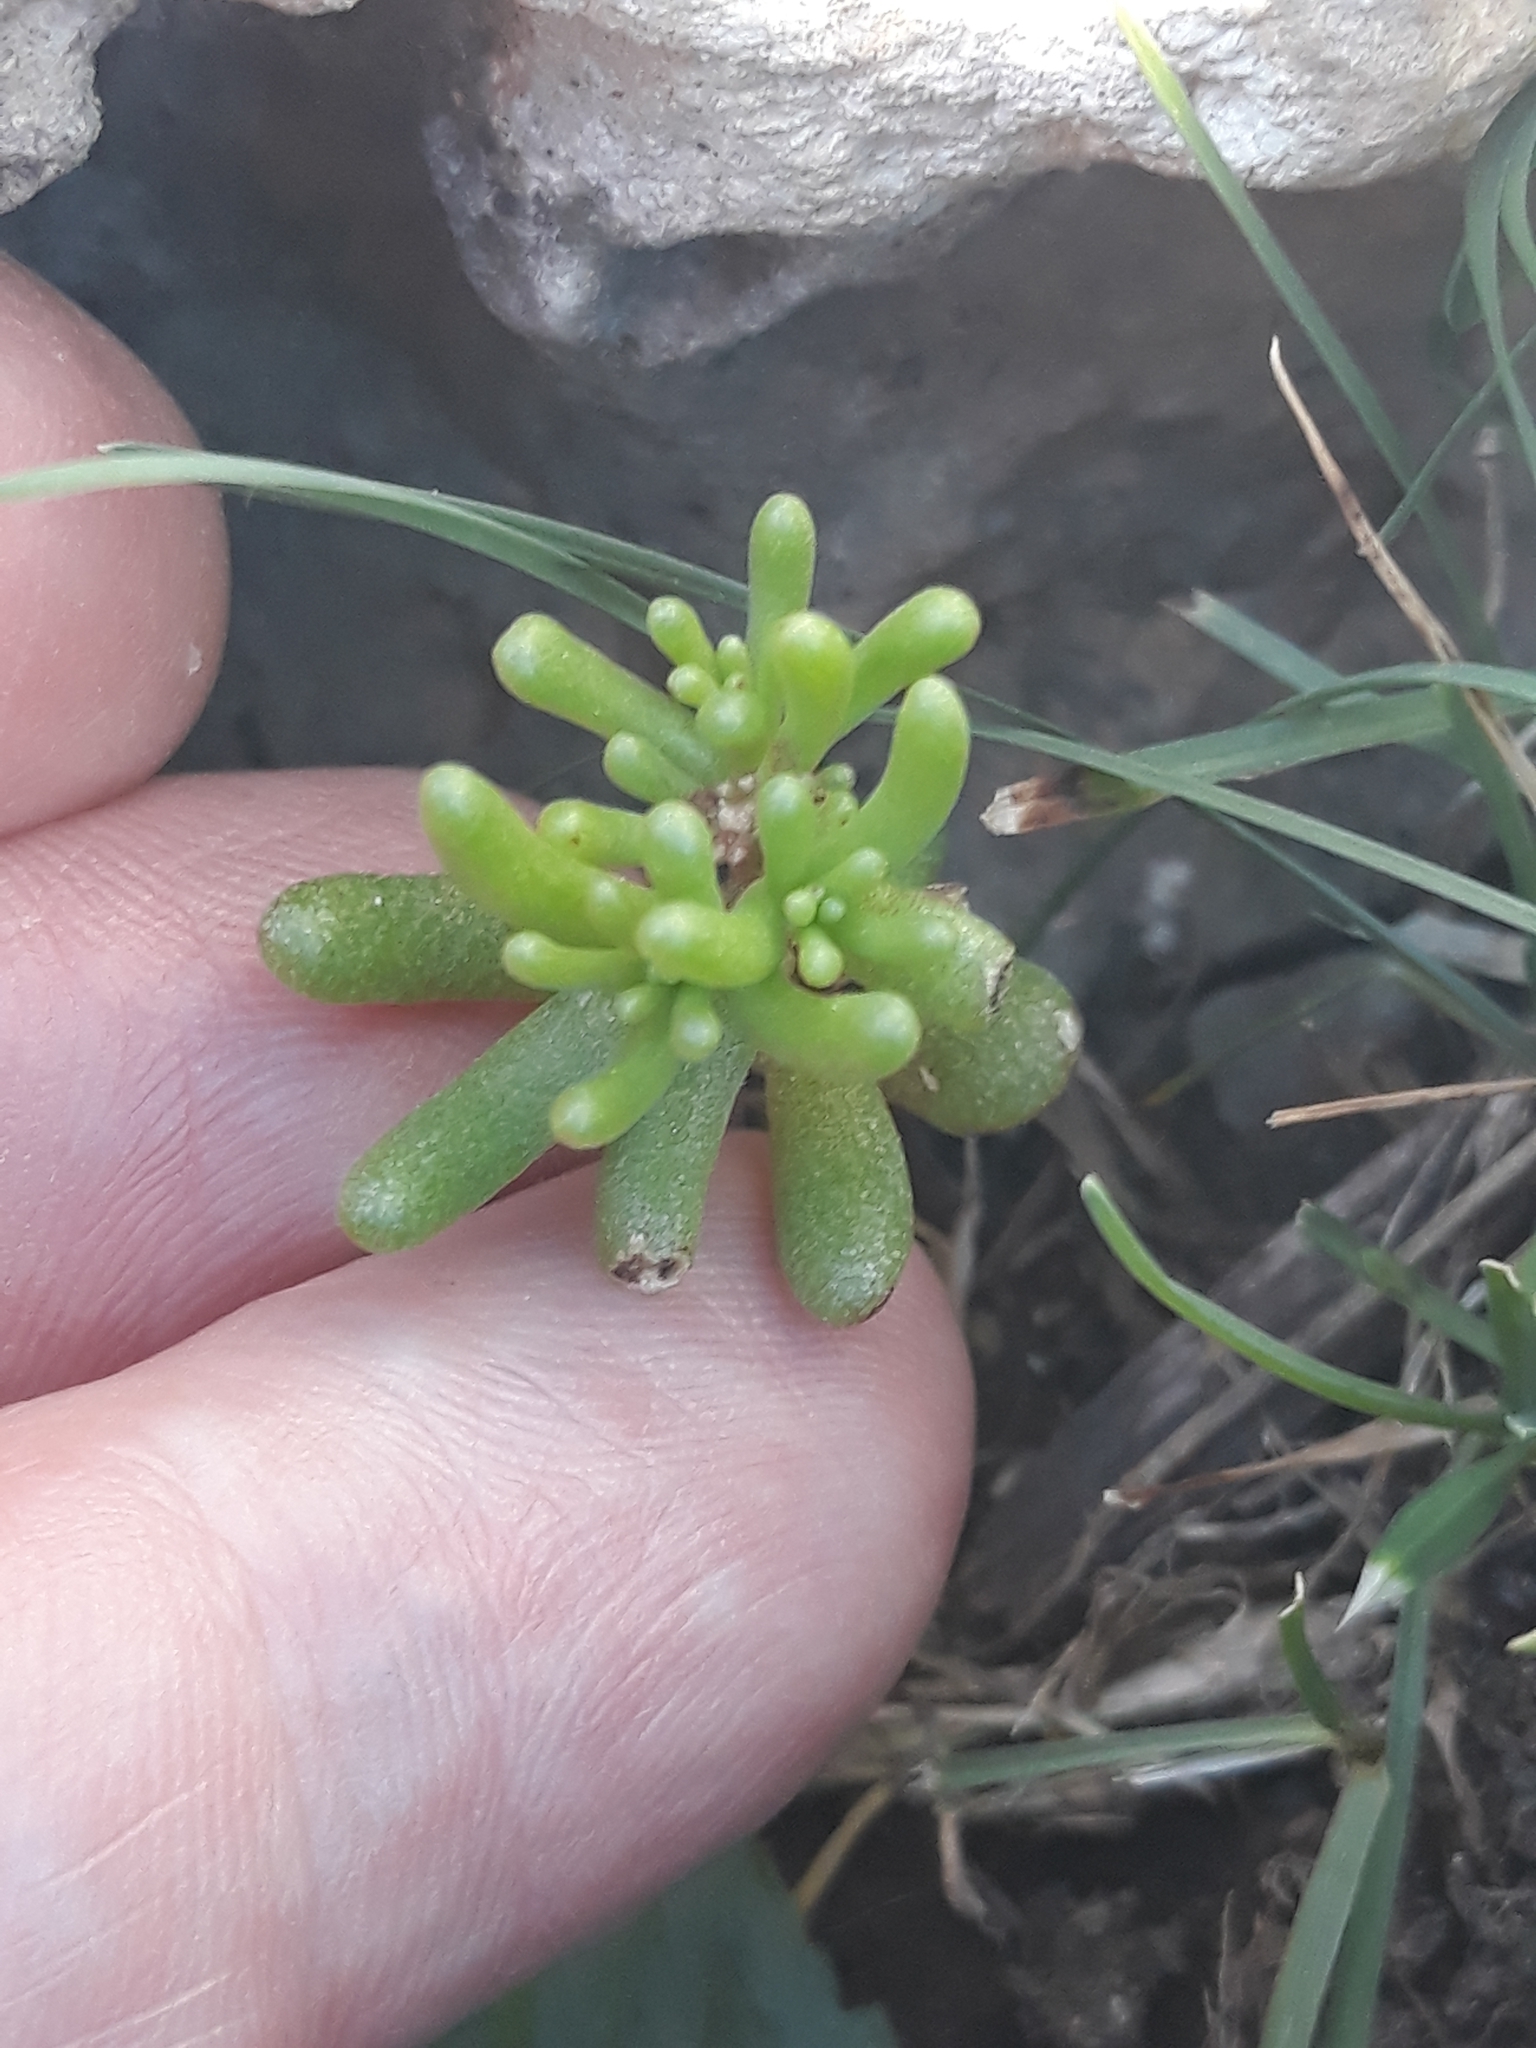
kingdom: Plantae
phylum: Tracheophyta
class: Magnoliopsida
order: Saxifragales
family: Crassulaceae
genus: Sedum
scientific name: Sedum caeruleum
